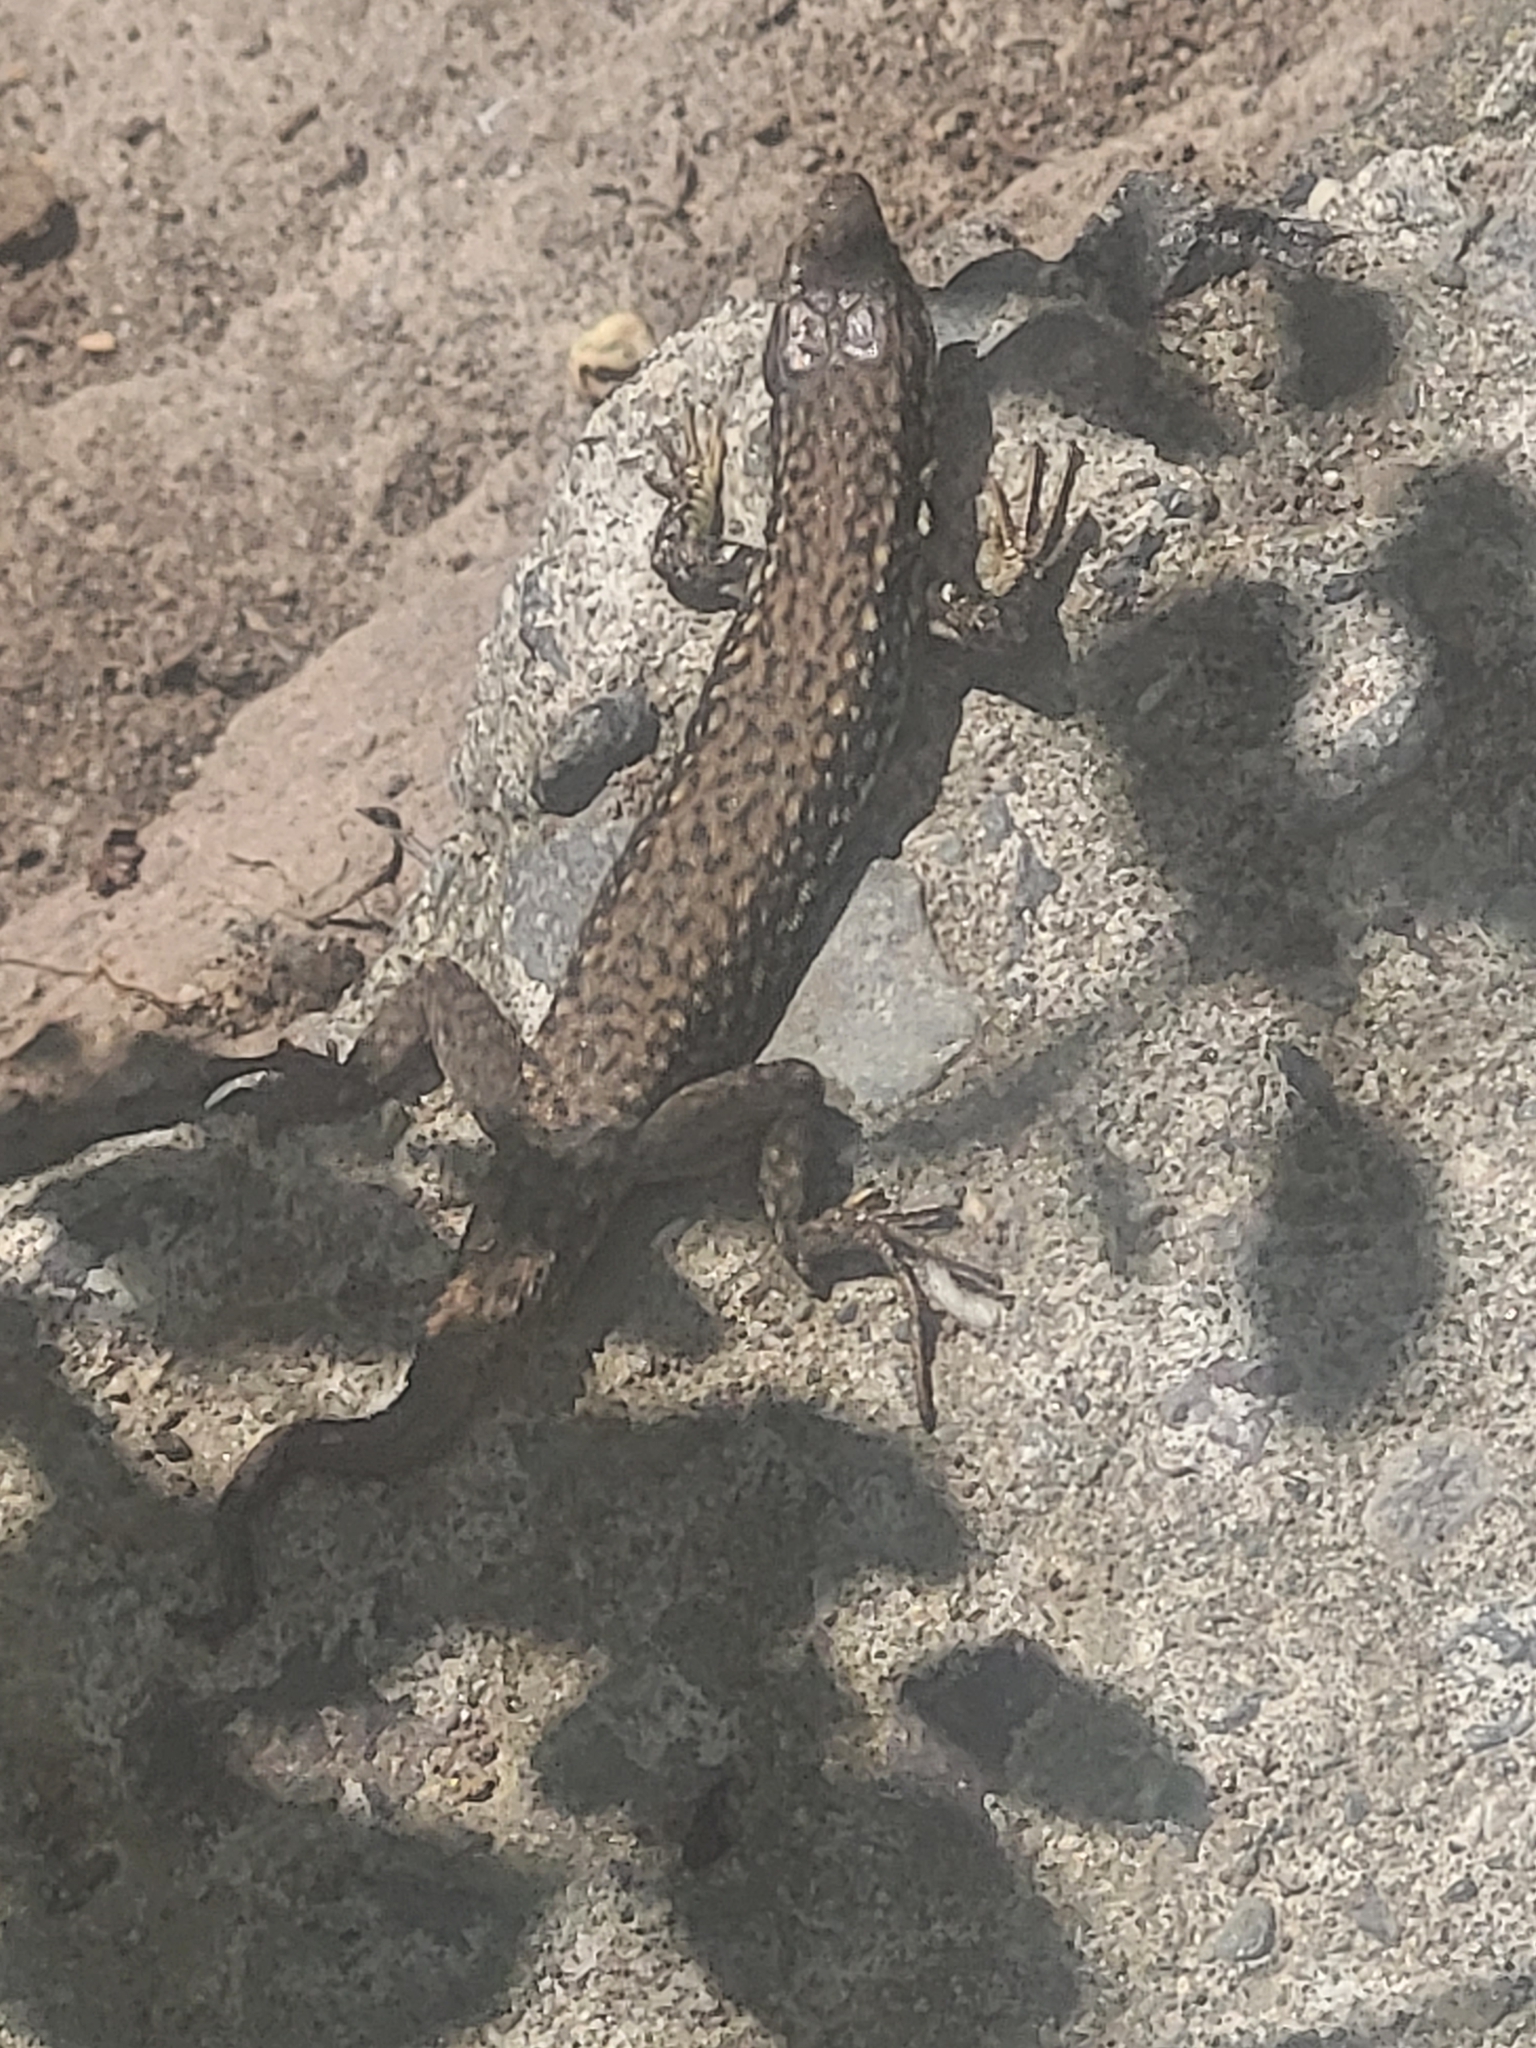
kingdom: Animalia
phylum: Chordata
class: Squamata
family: Lacertidae
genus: Darevskia
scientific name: Darevskia raddei
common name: Radde's lizard
